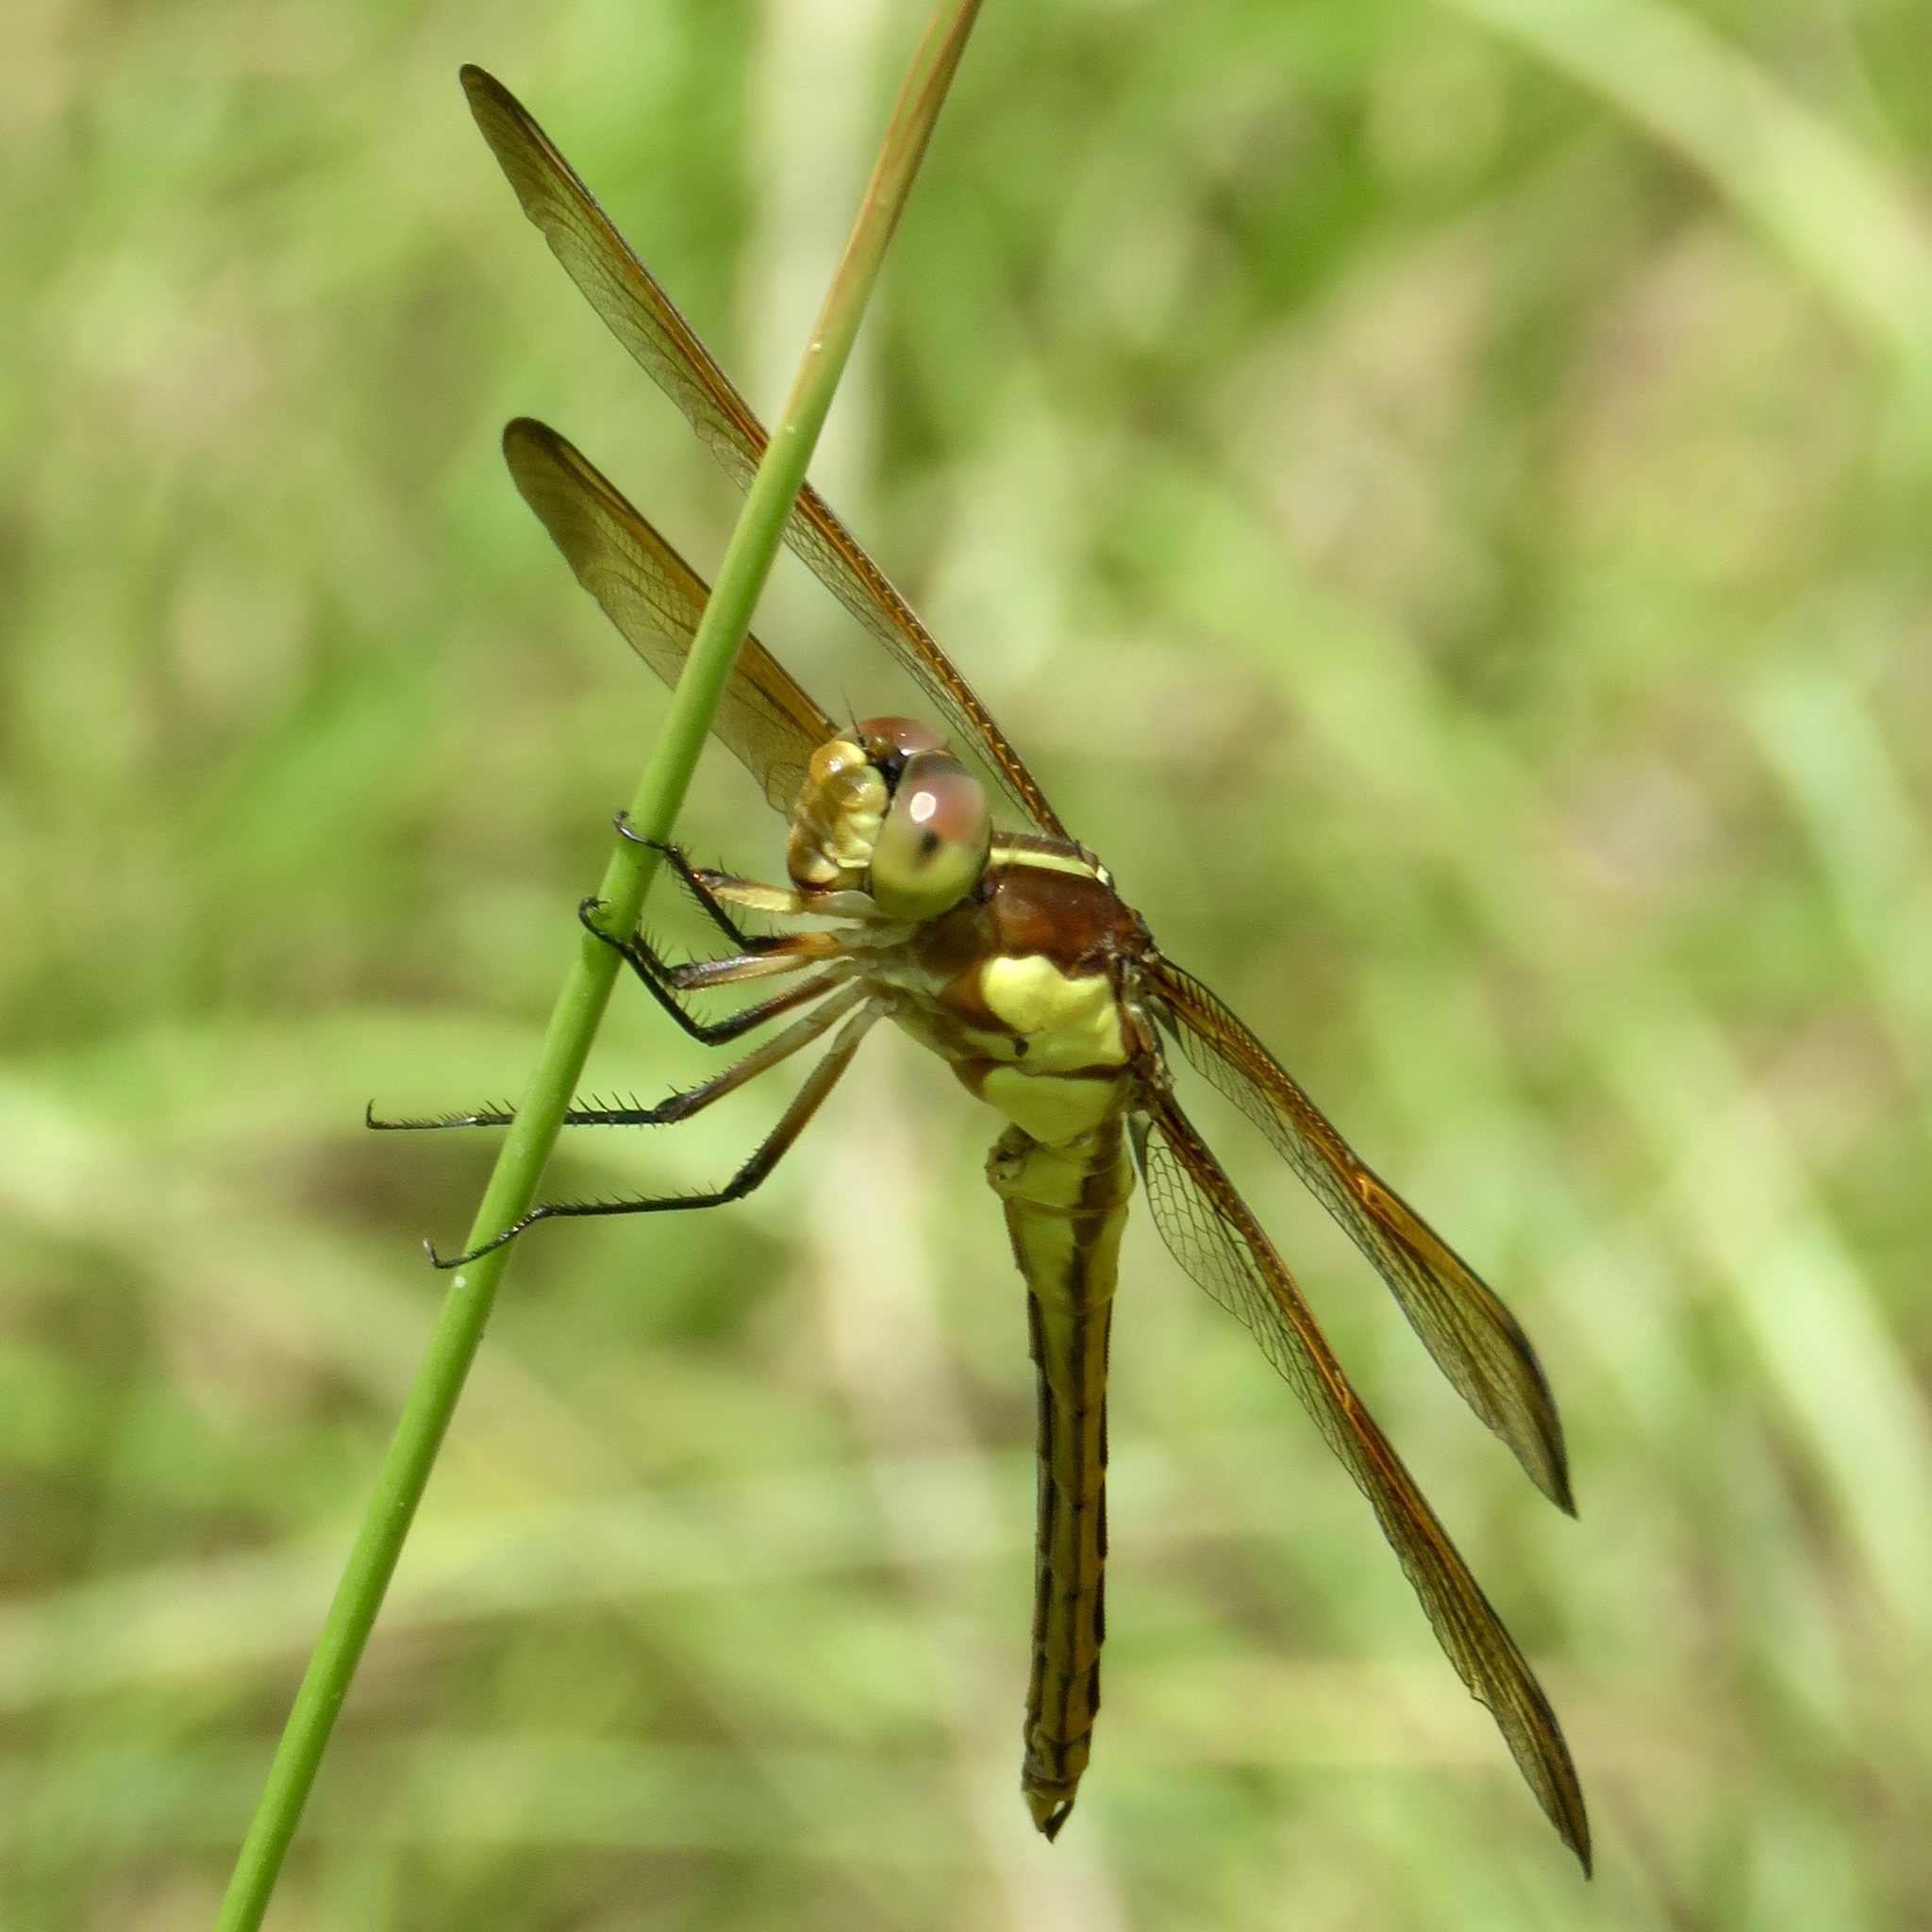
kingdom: Animalia
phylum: Arthropoda
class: Insecta
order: Odonata
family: Libellulidae
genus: Libellula
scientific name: Libellula flavida
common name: Yellow-sided skimmer
